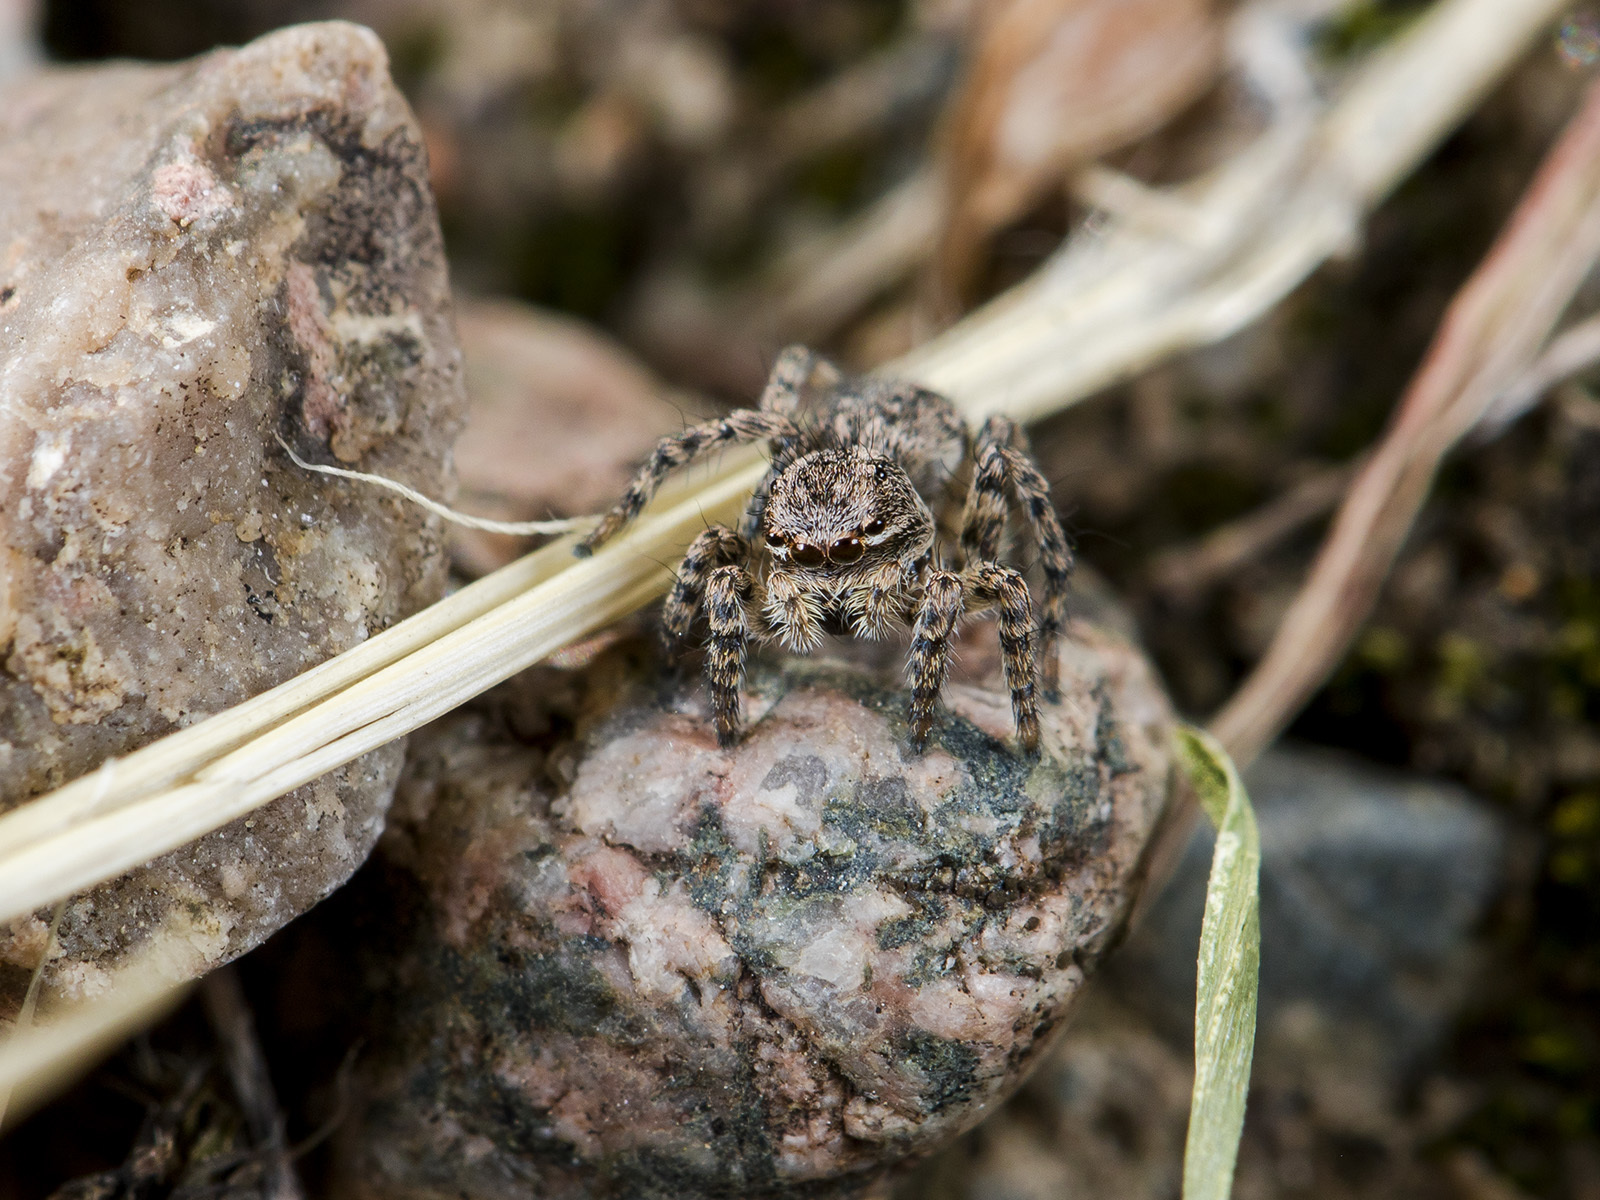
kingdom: Animalia
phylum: Arthropoda
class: Arachnida
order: Araneae
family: Salticidae
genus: Aelurillus
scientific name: Aelurillus v-insignitus
